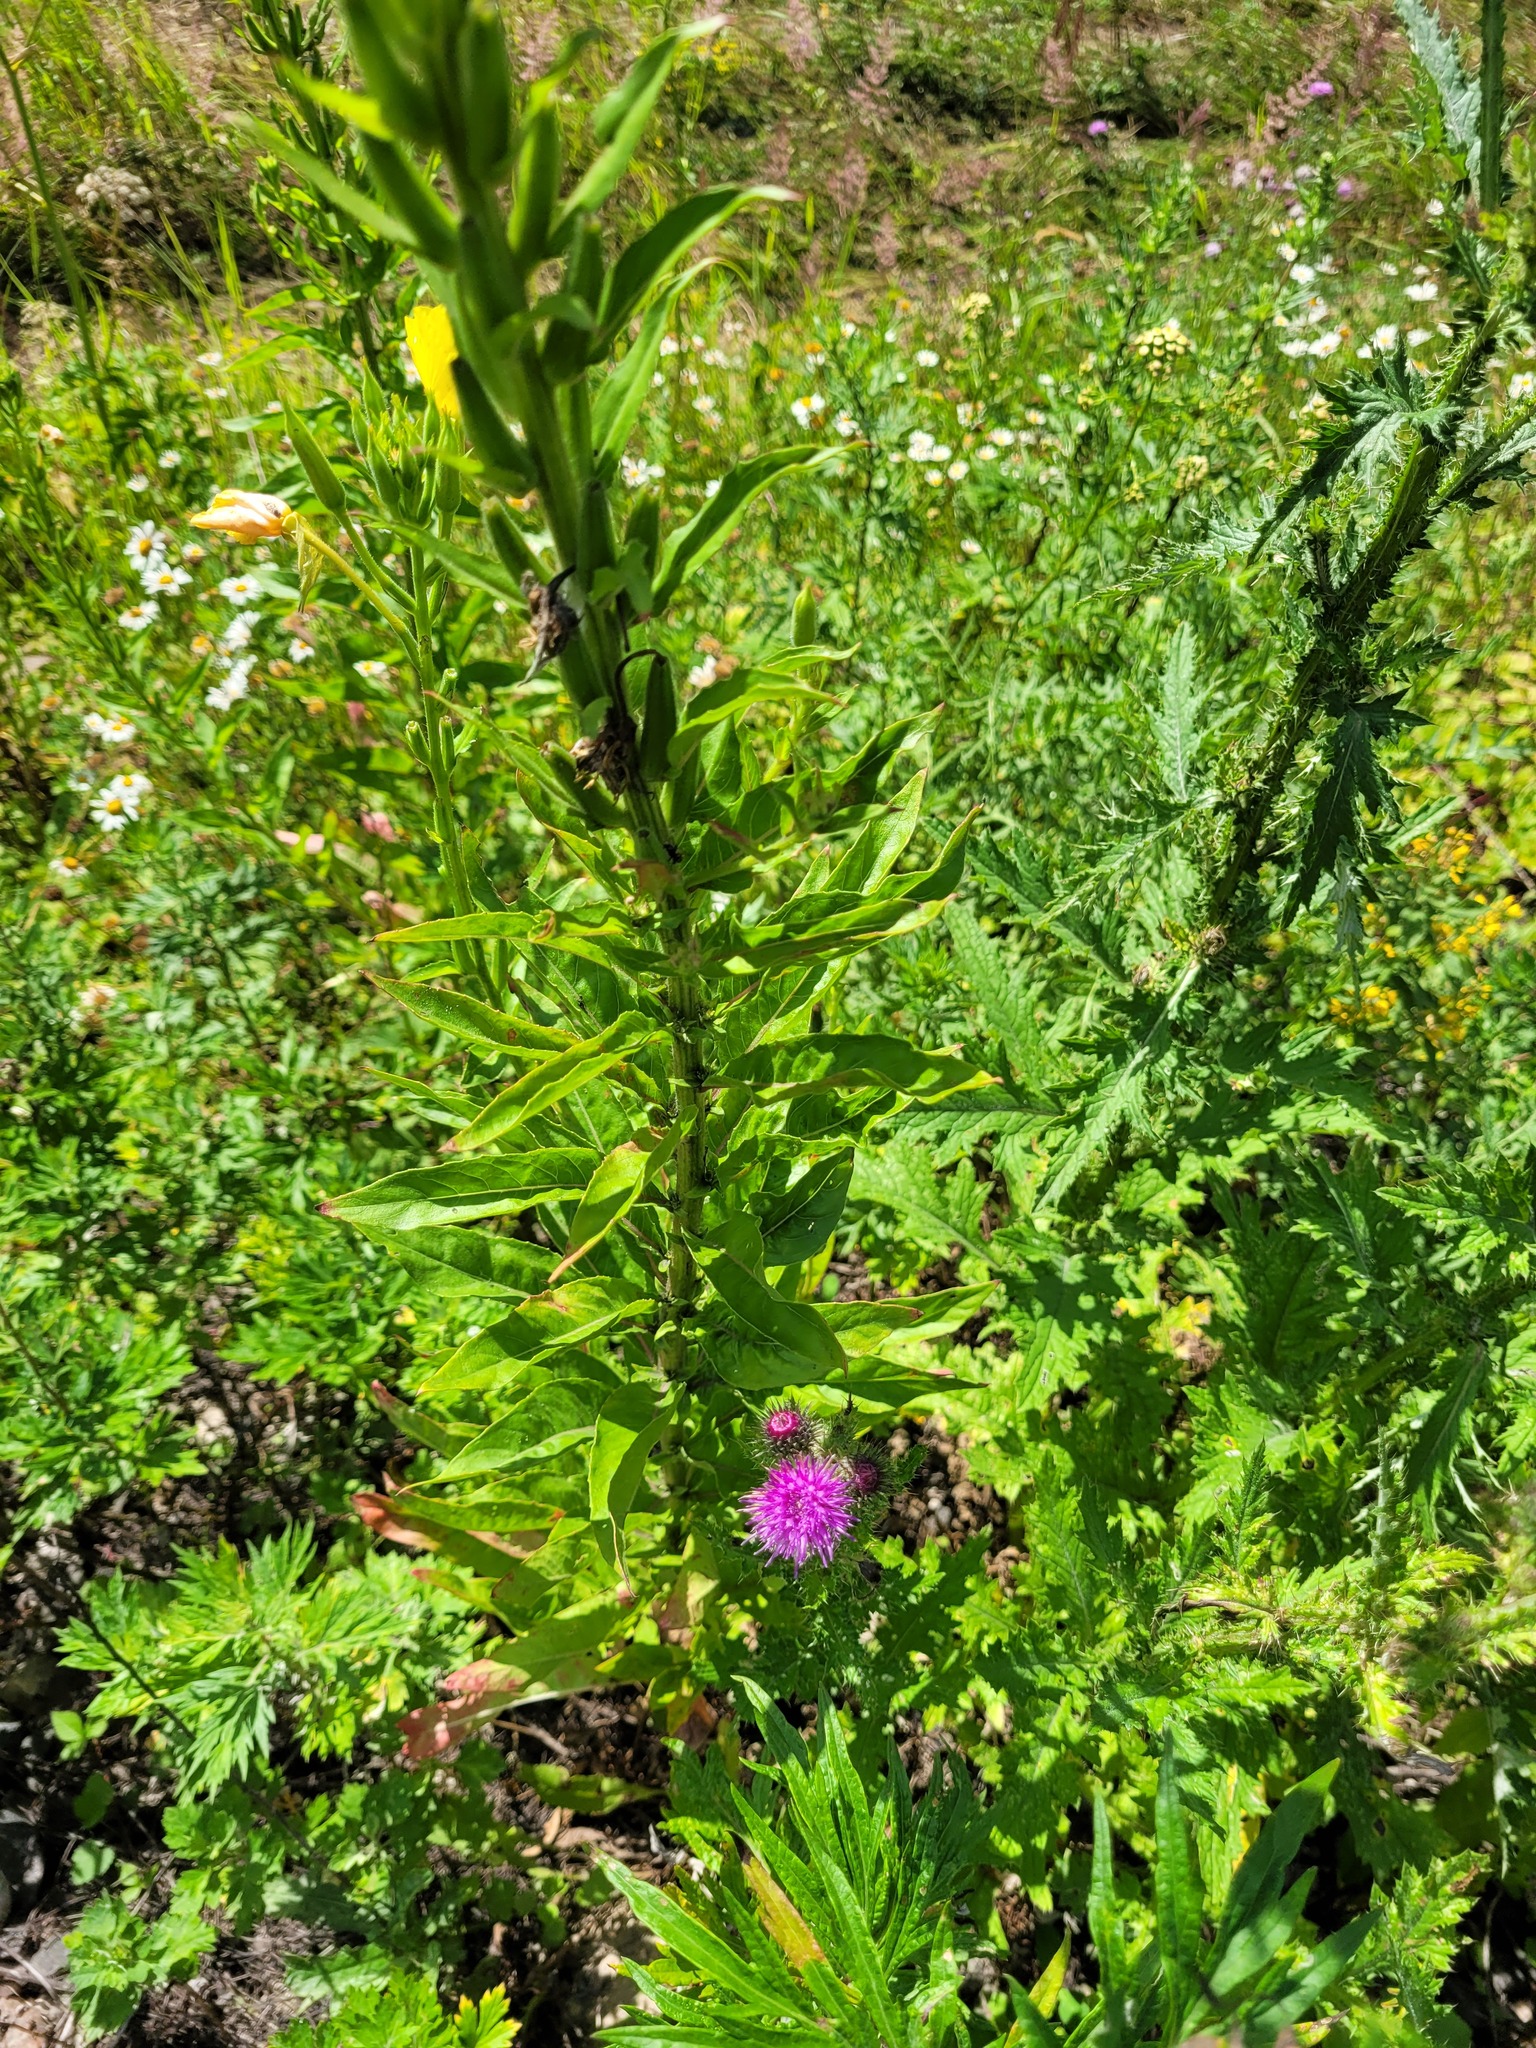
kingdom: Plantae
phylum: Tracheophyta
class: Magnoliopsida
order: Myrtales
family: Onagraceae
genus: Oenothera
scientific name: Oenothera biennis
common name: Common evening-primrose
